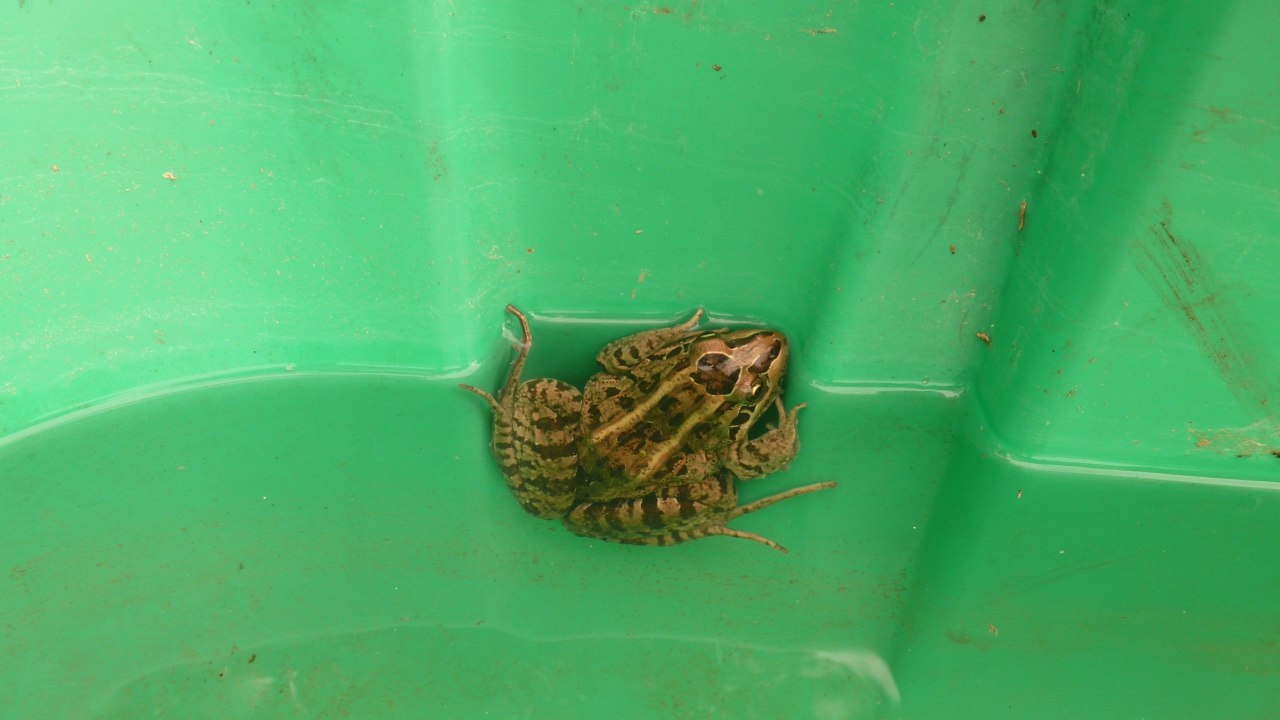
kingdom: Animalia
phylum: Chordata
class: Amphibia
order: Anura
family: Leptodactylidae
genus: Leptodactylus
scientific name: Leptodactylus luctator
